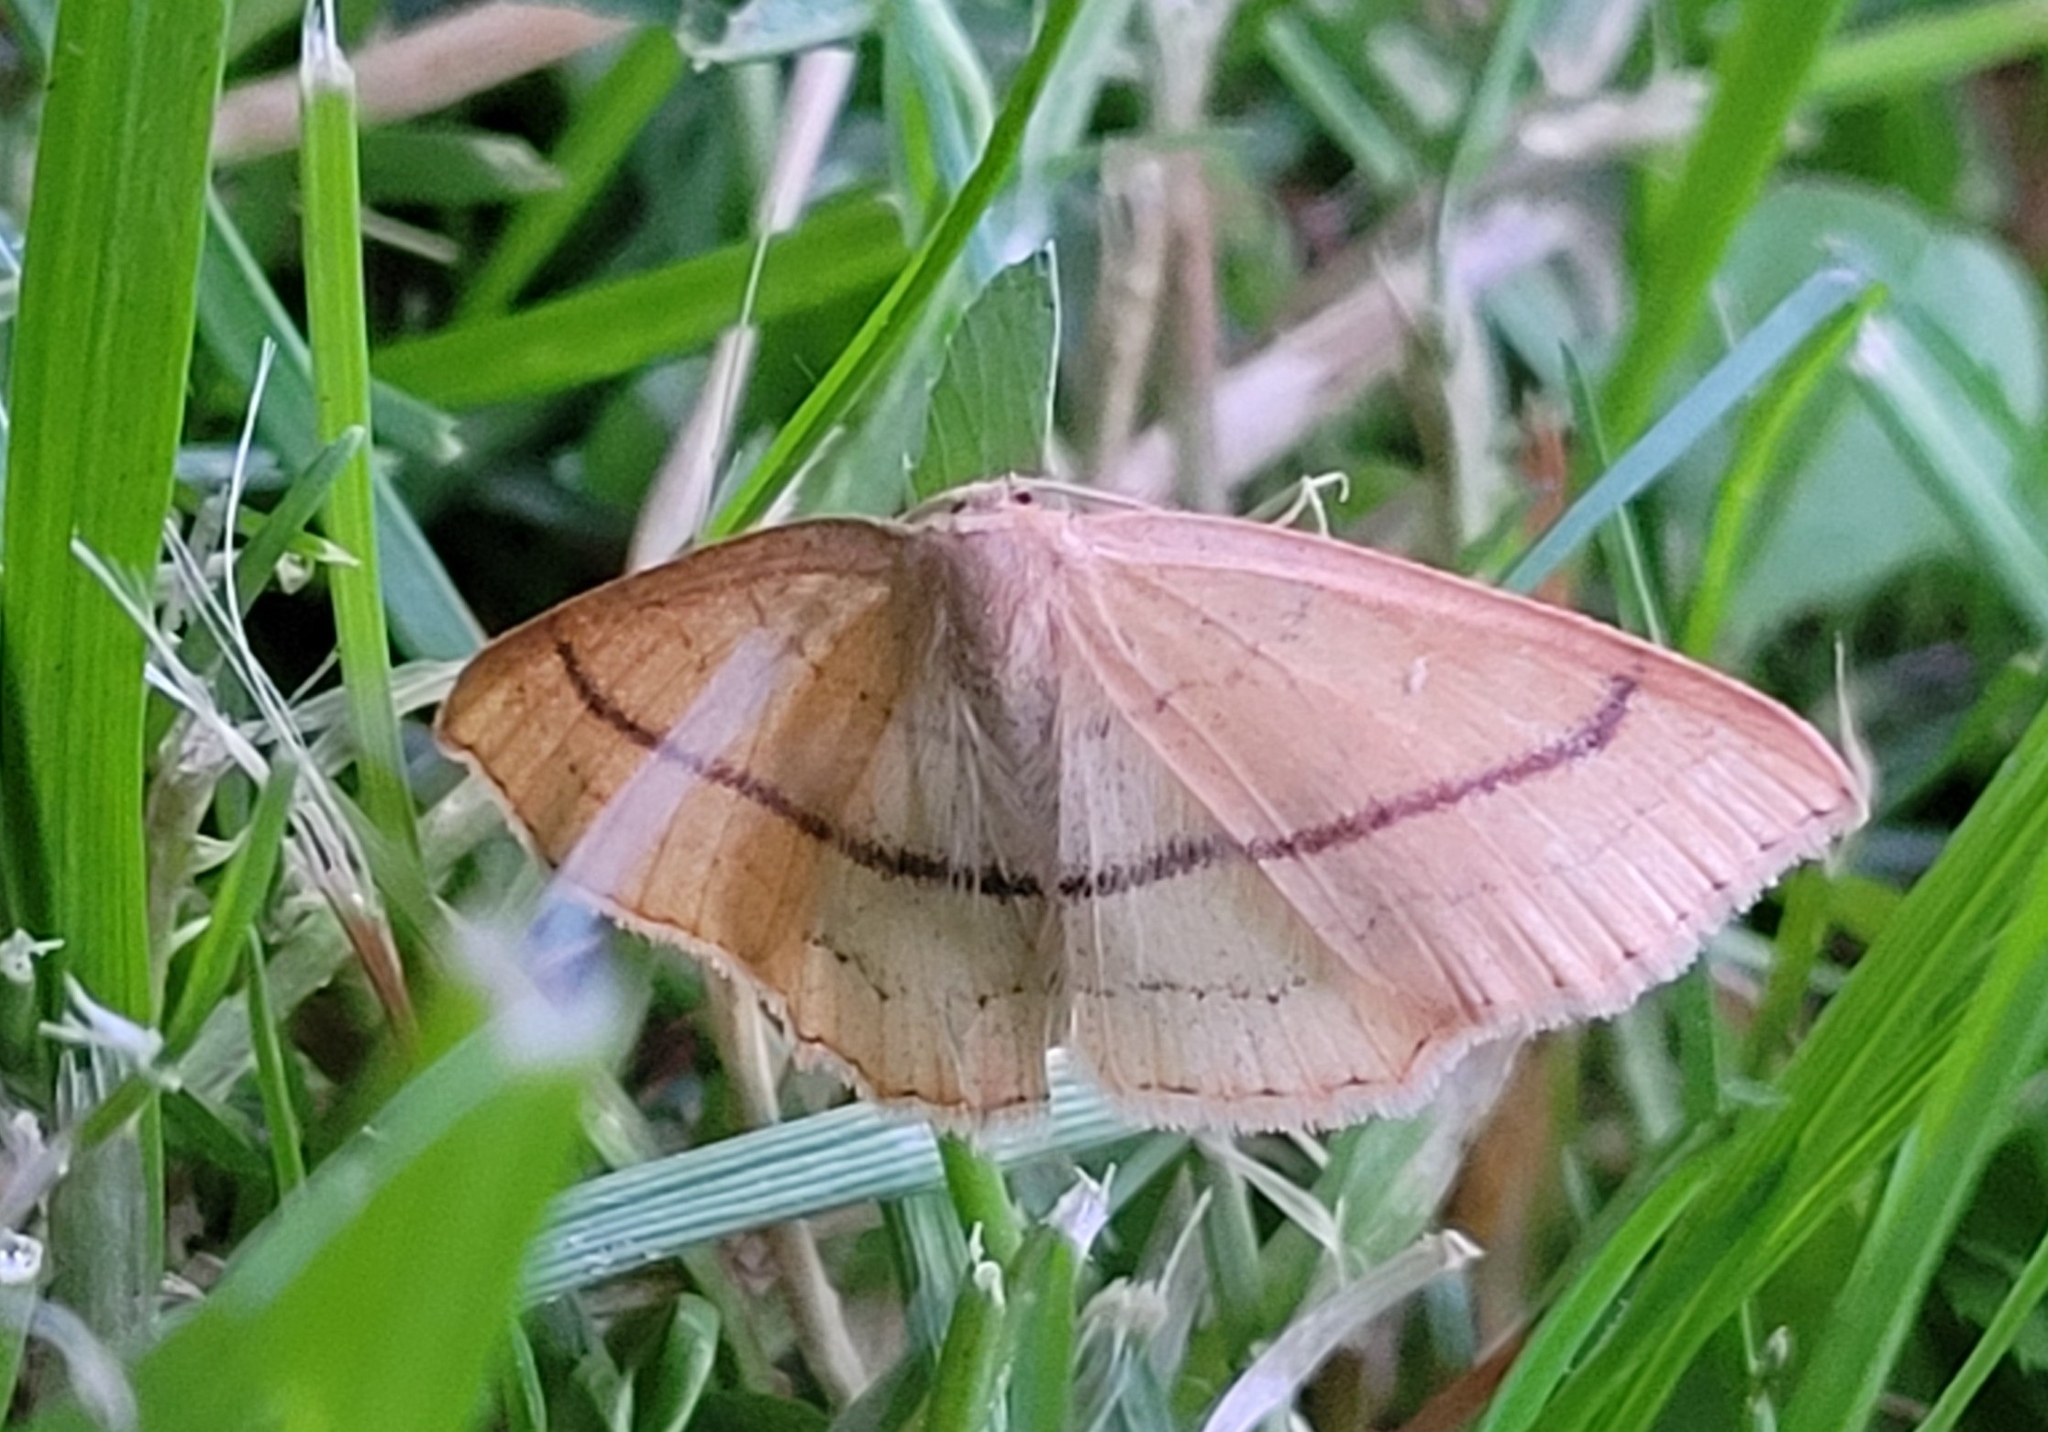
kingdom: Animalia
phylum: Arthropoda
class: Insecta
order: Lepidoptera
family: Geometridae
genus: Cyclophora
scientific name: Cyclophora linearia
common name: Clay triple-lines
